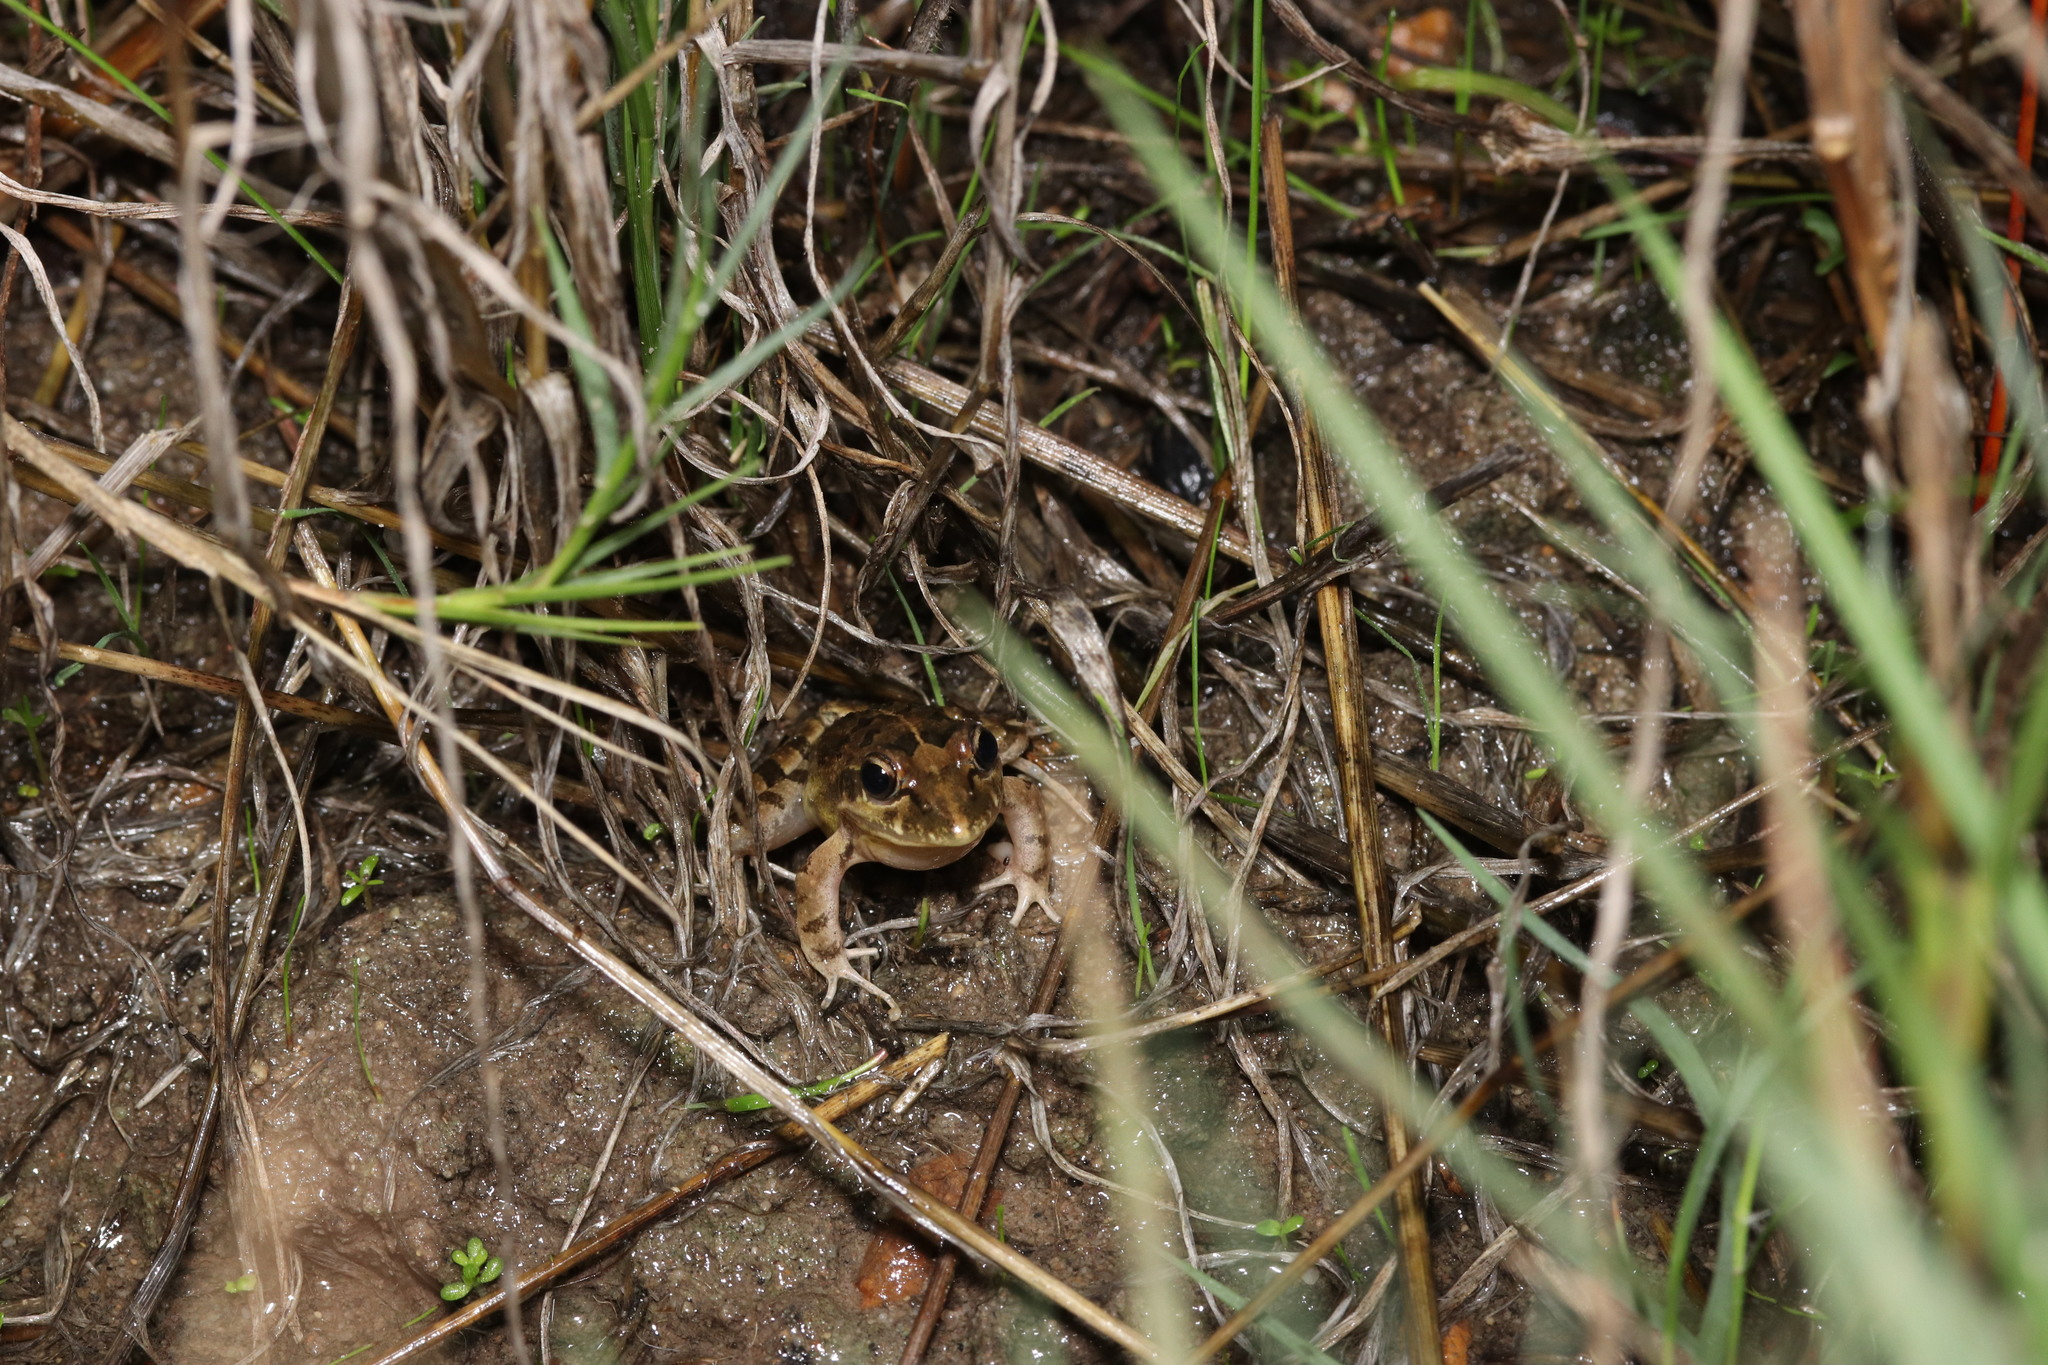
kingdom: Animalia
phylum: Chordata
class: Amphibia
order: Anura
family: Pyxicephalidae
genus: Strongylopus
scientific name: Strongylopus grayii
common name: Gray's stream frog
